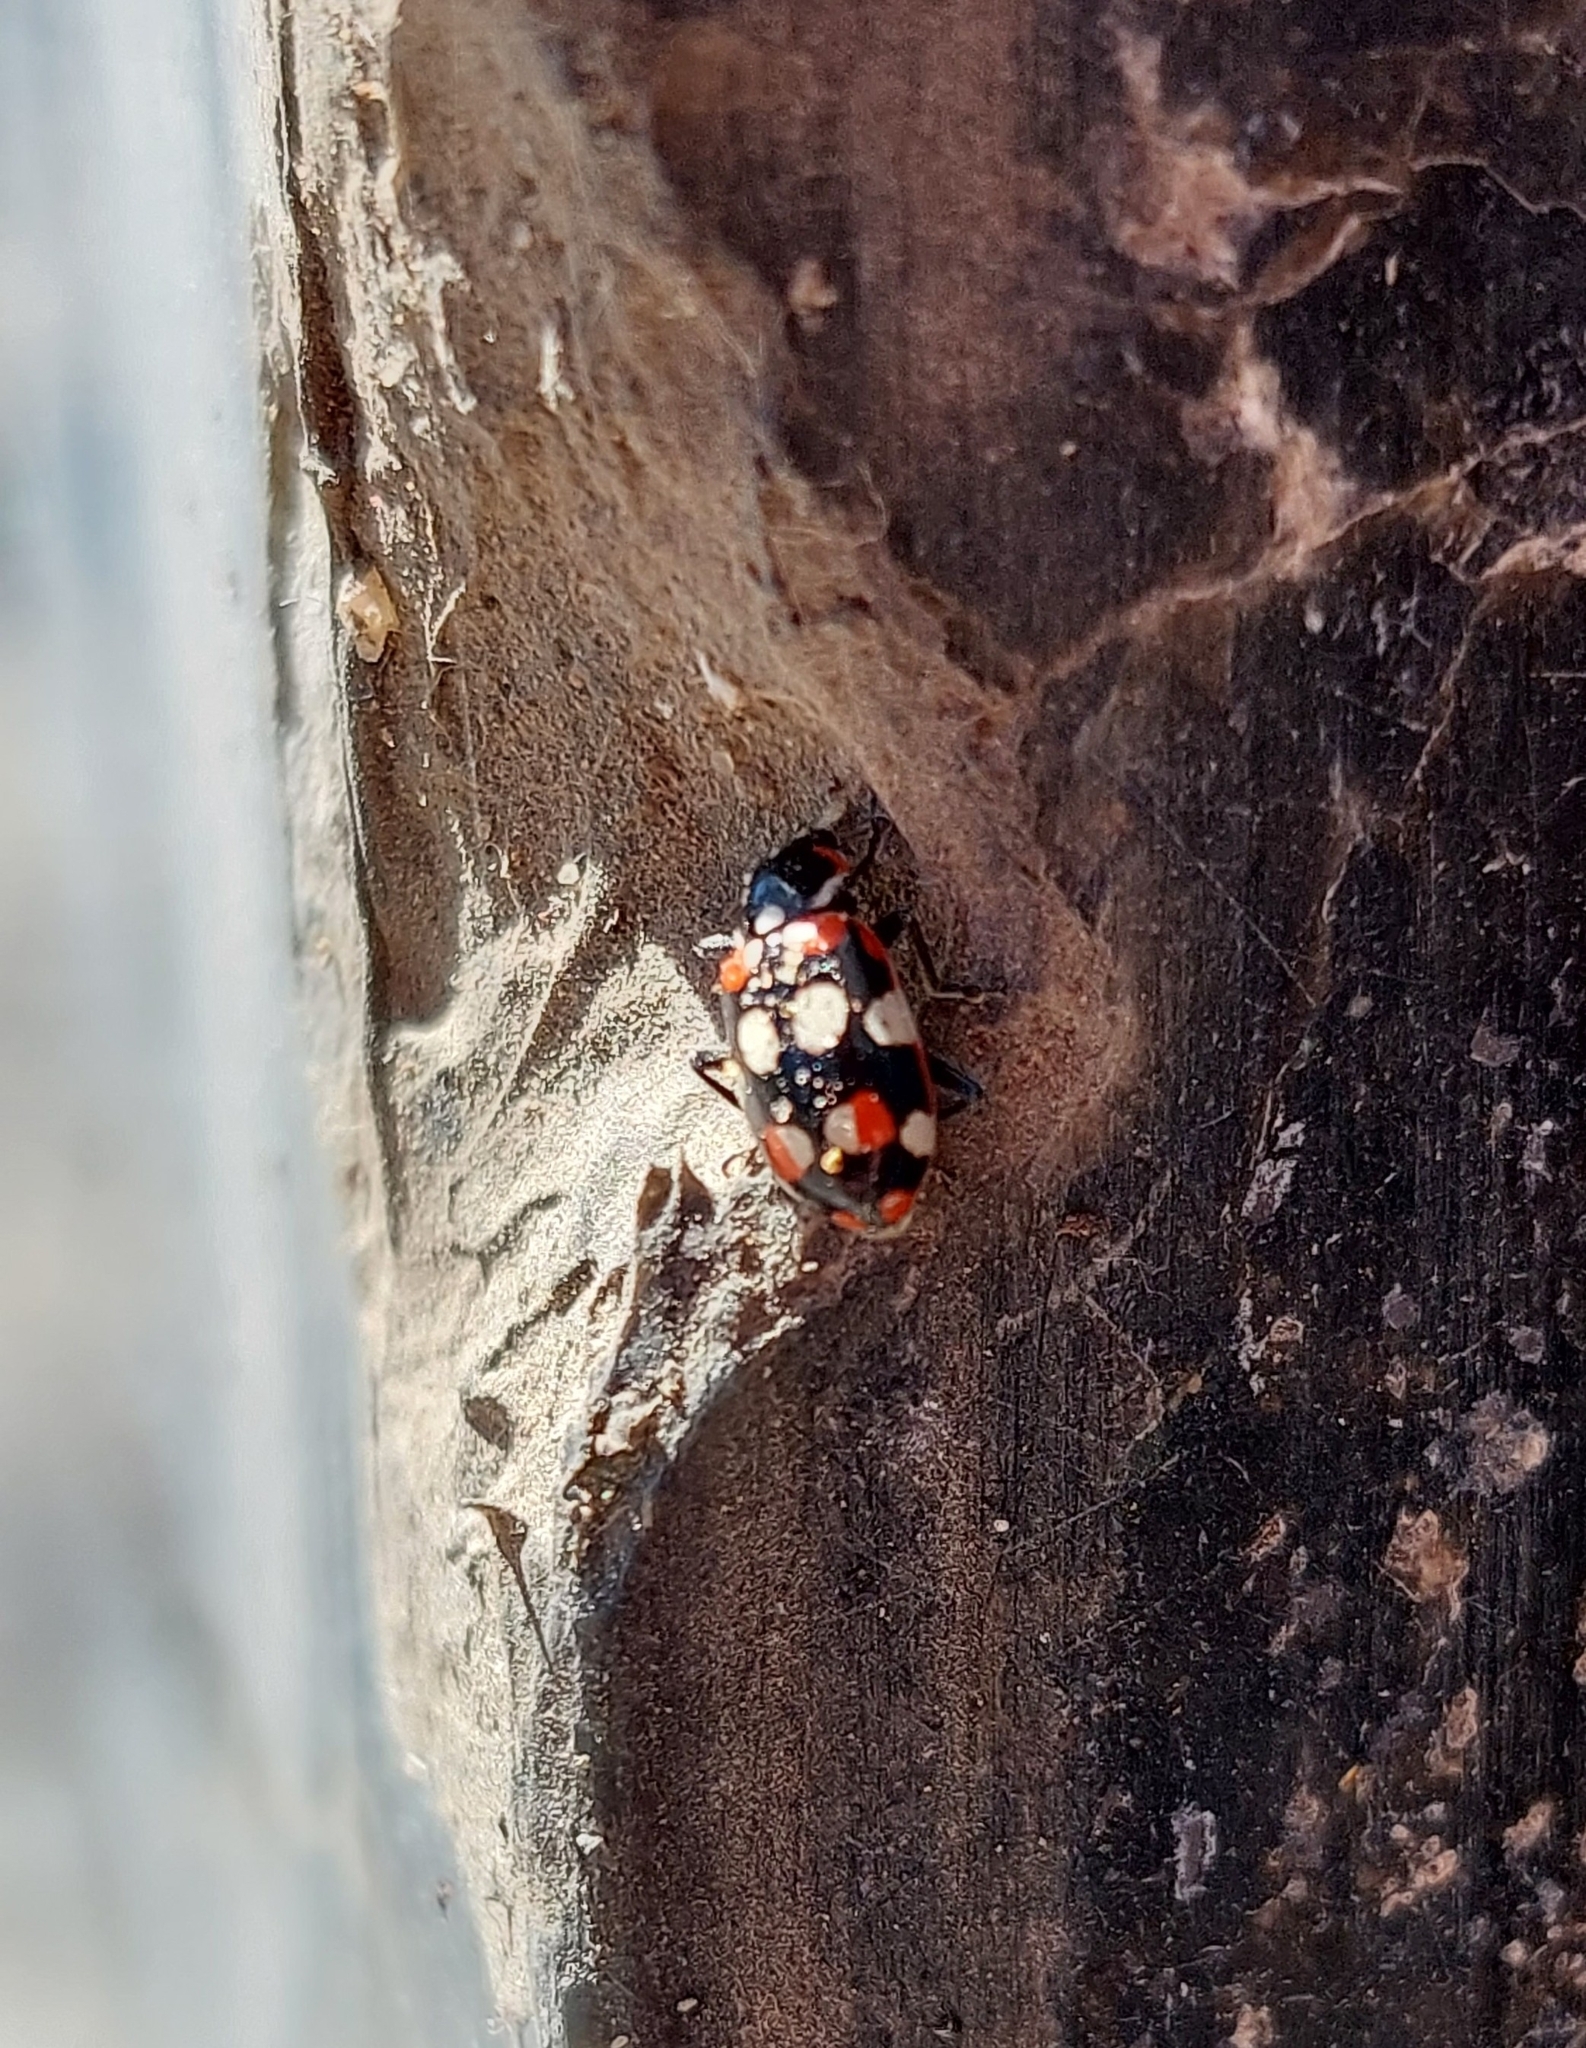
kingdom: Animalia
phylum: Arthropoda
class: Insecta
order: Coleoptera
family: Coccinellidae
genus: Eriopis
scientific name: Eriopis connexa
